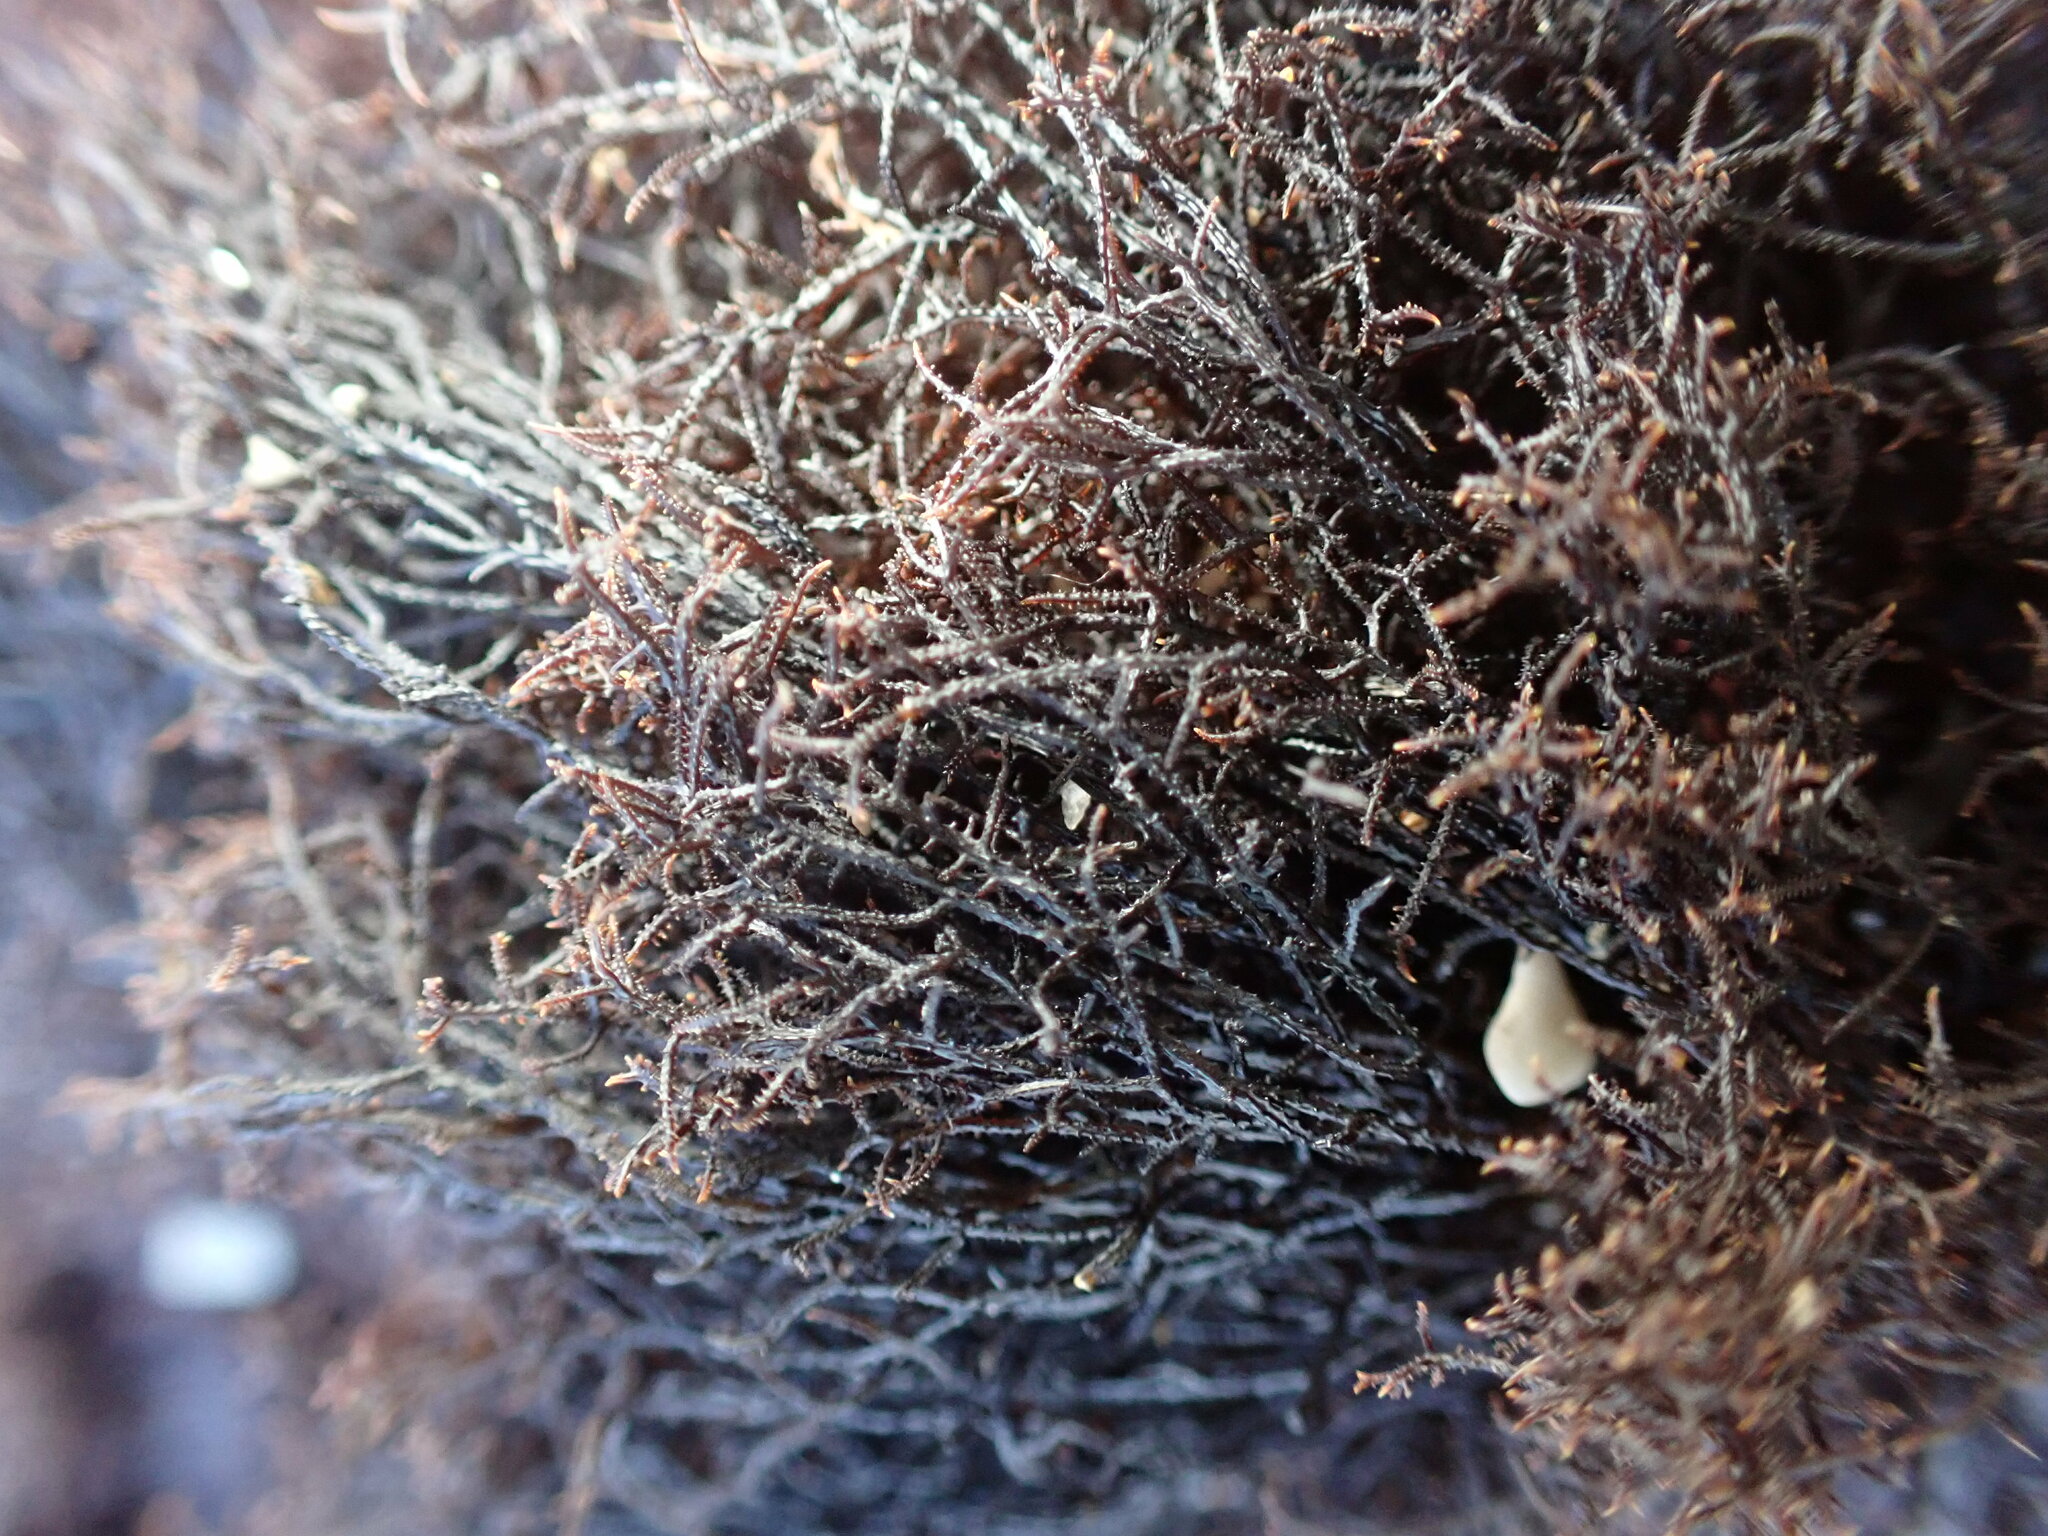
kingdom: Plantae
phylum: Rhodophyta
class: Florideophyceae
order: Gigartinales
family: Endocladiaceae
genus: Endocladia
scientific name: Endocladia muricata
